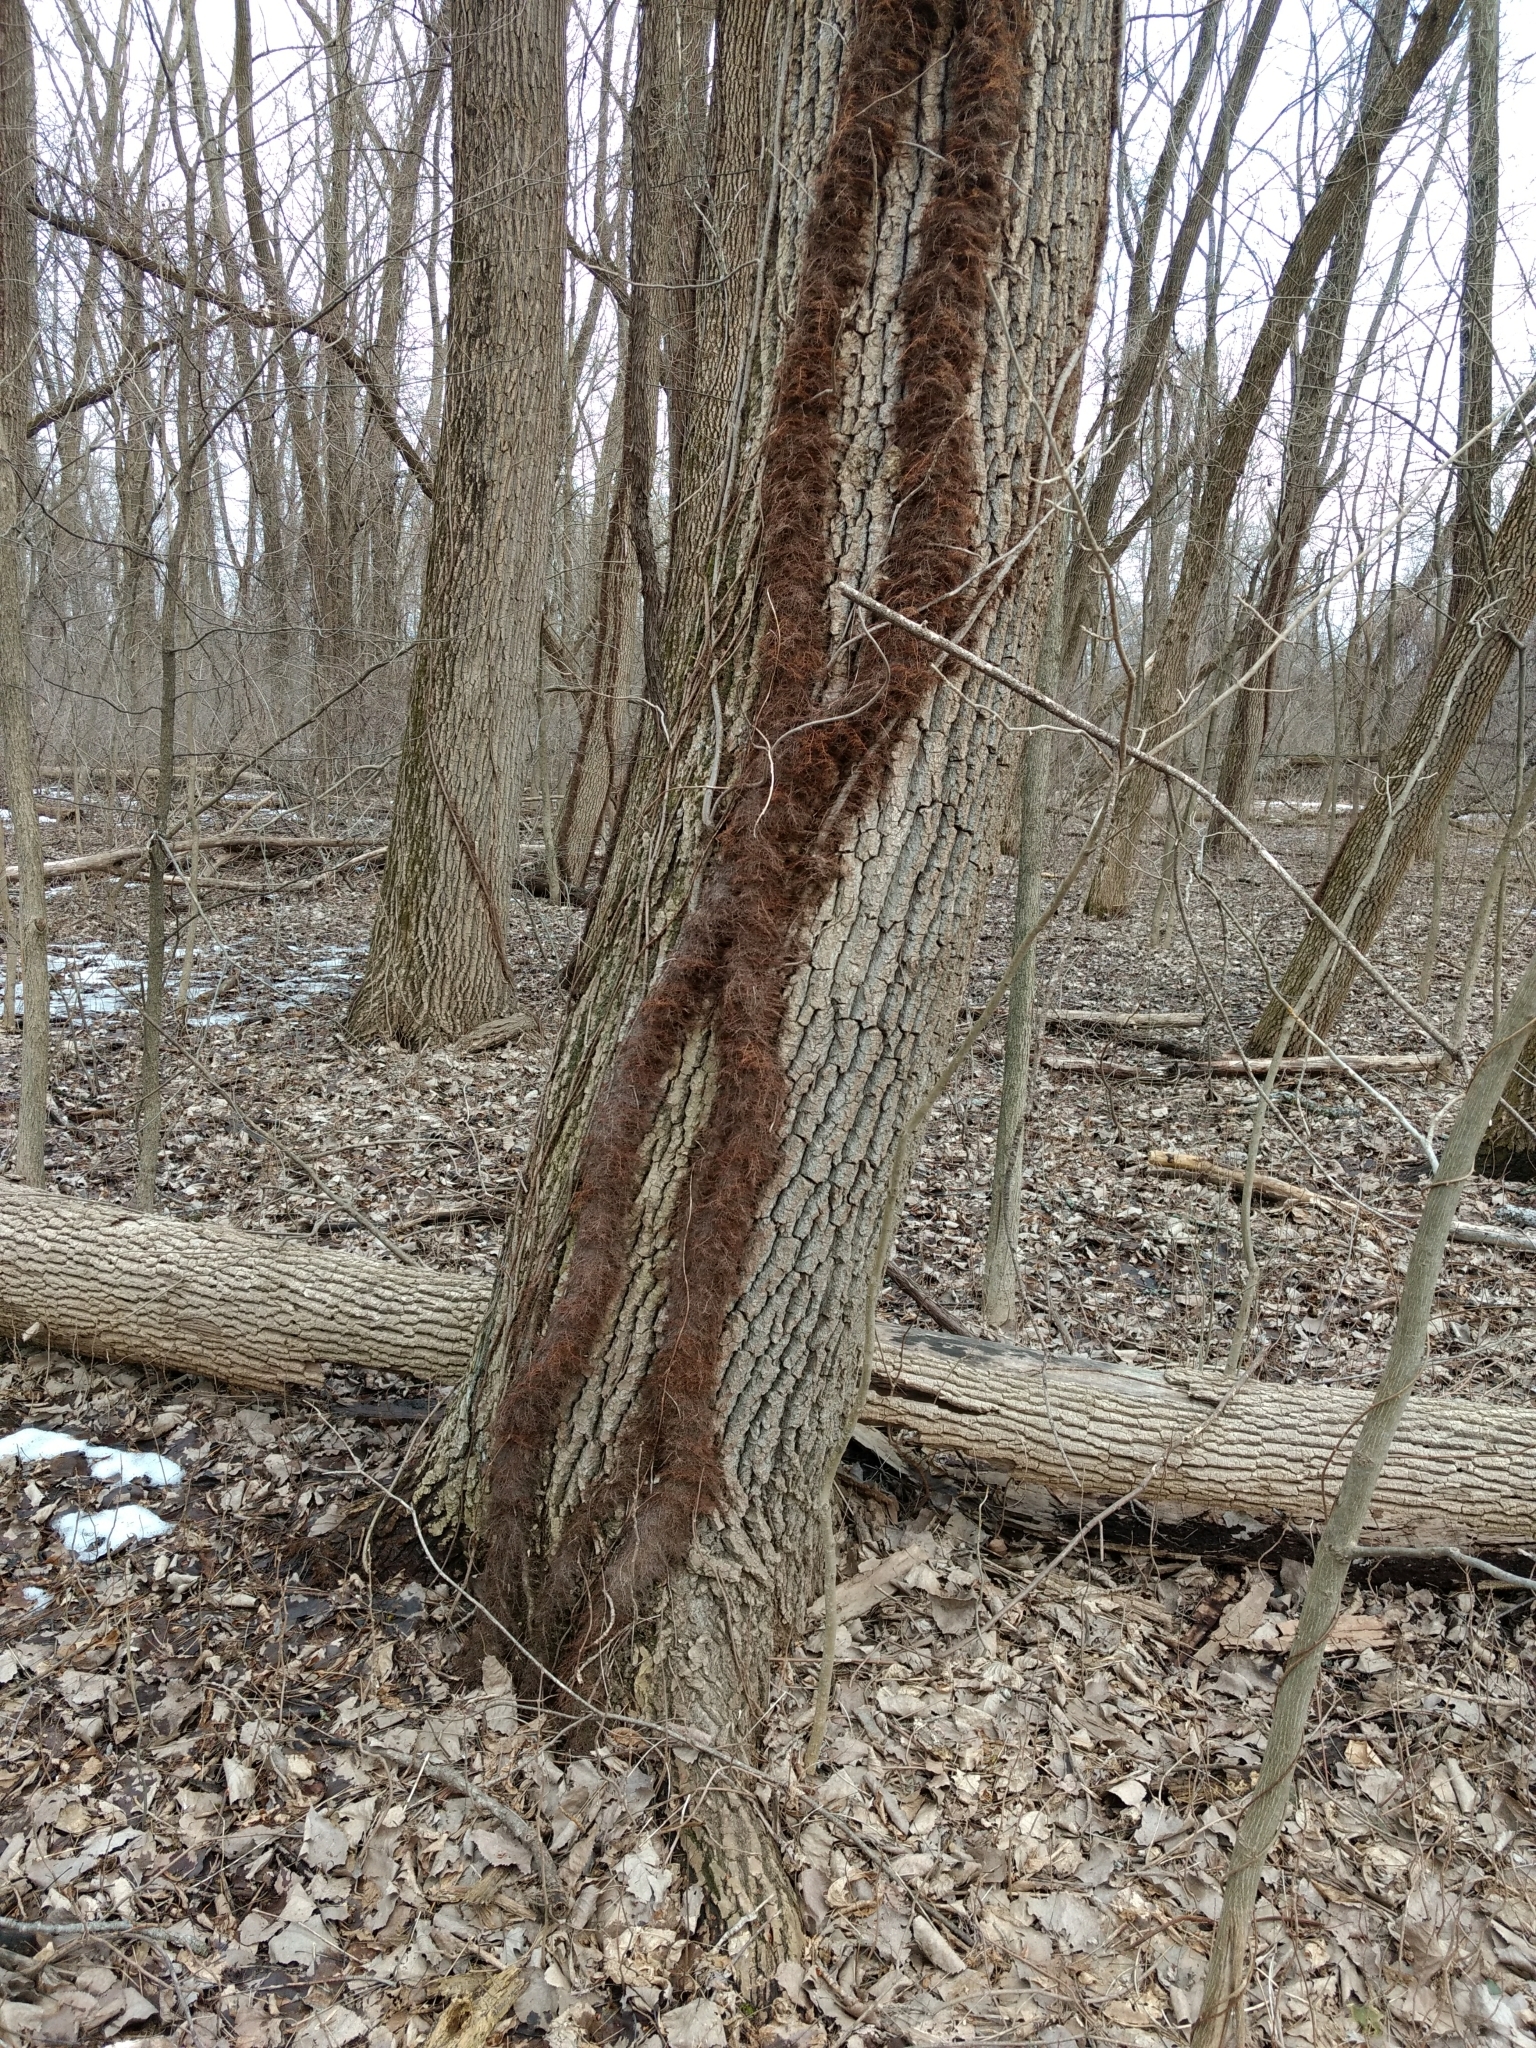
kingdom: Plantae
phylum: Tracheophyta
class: Magnoliopsida
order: Sapindales
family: Anacardiaceae
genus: Toxicodendron
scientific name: Toxicodendron radicans
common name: Poison ivy
